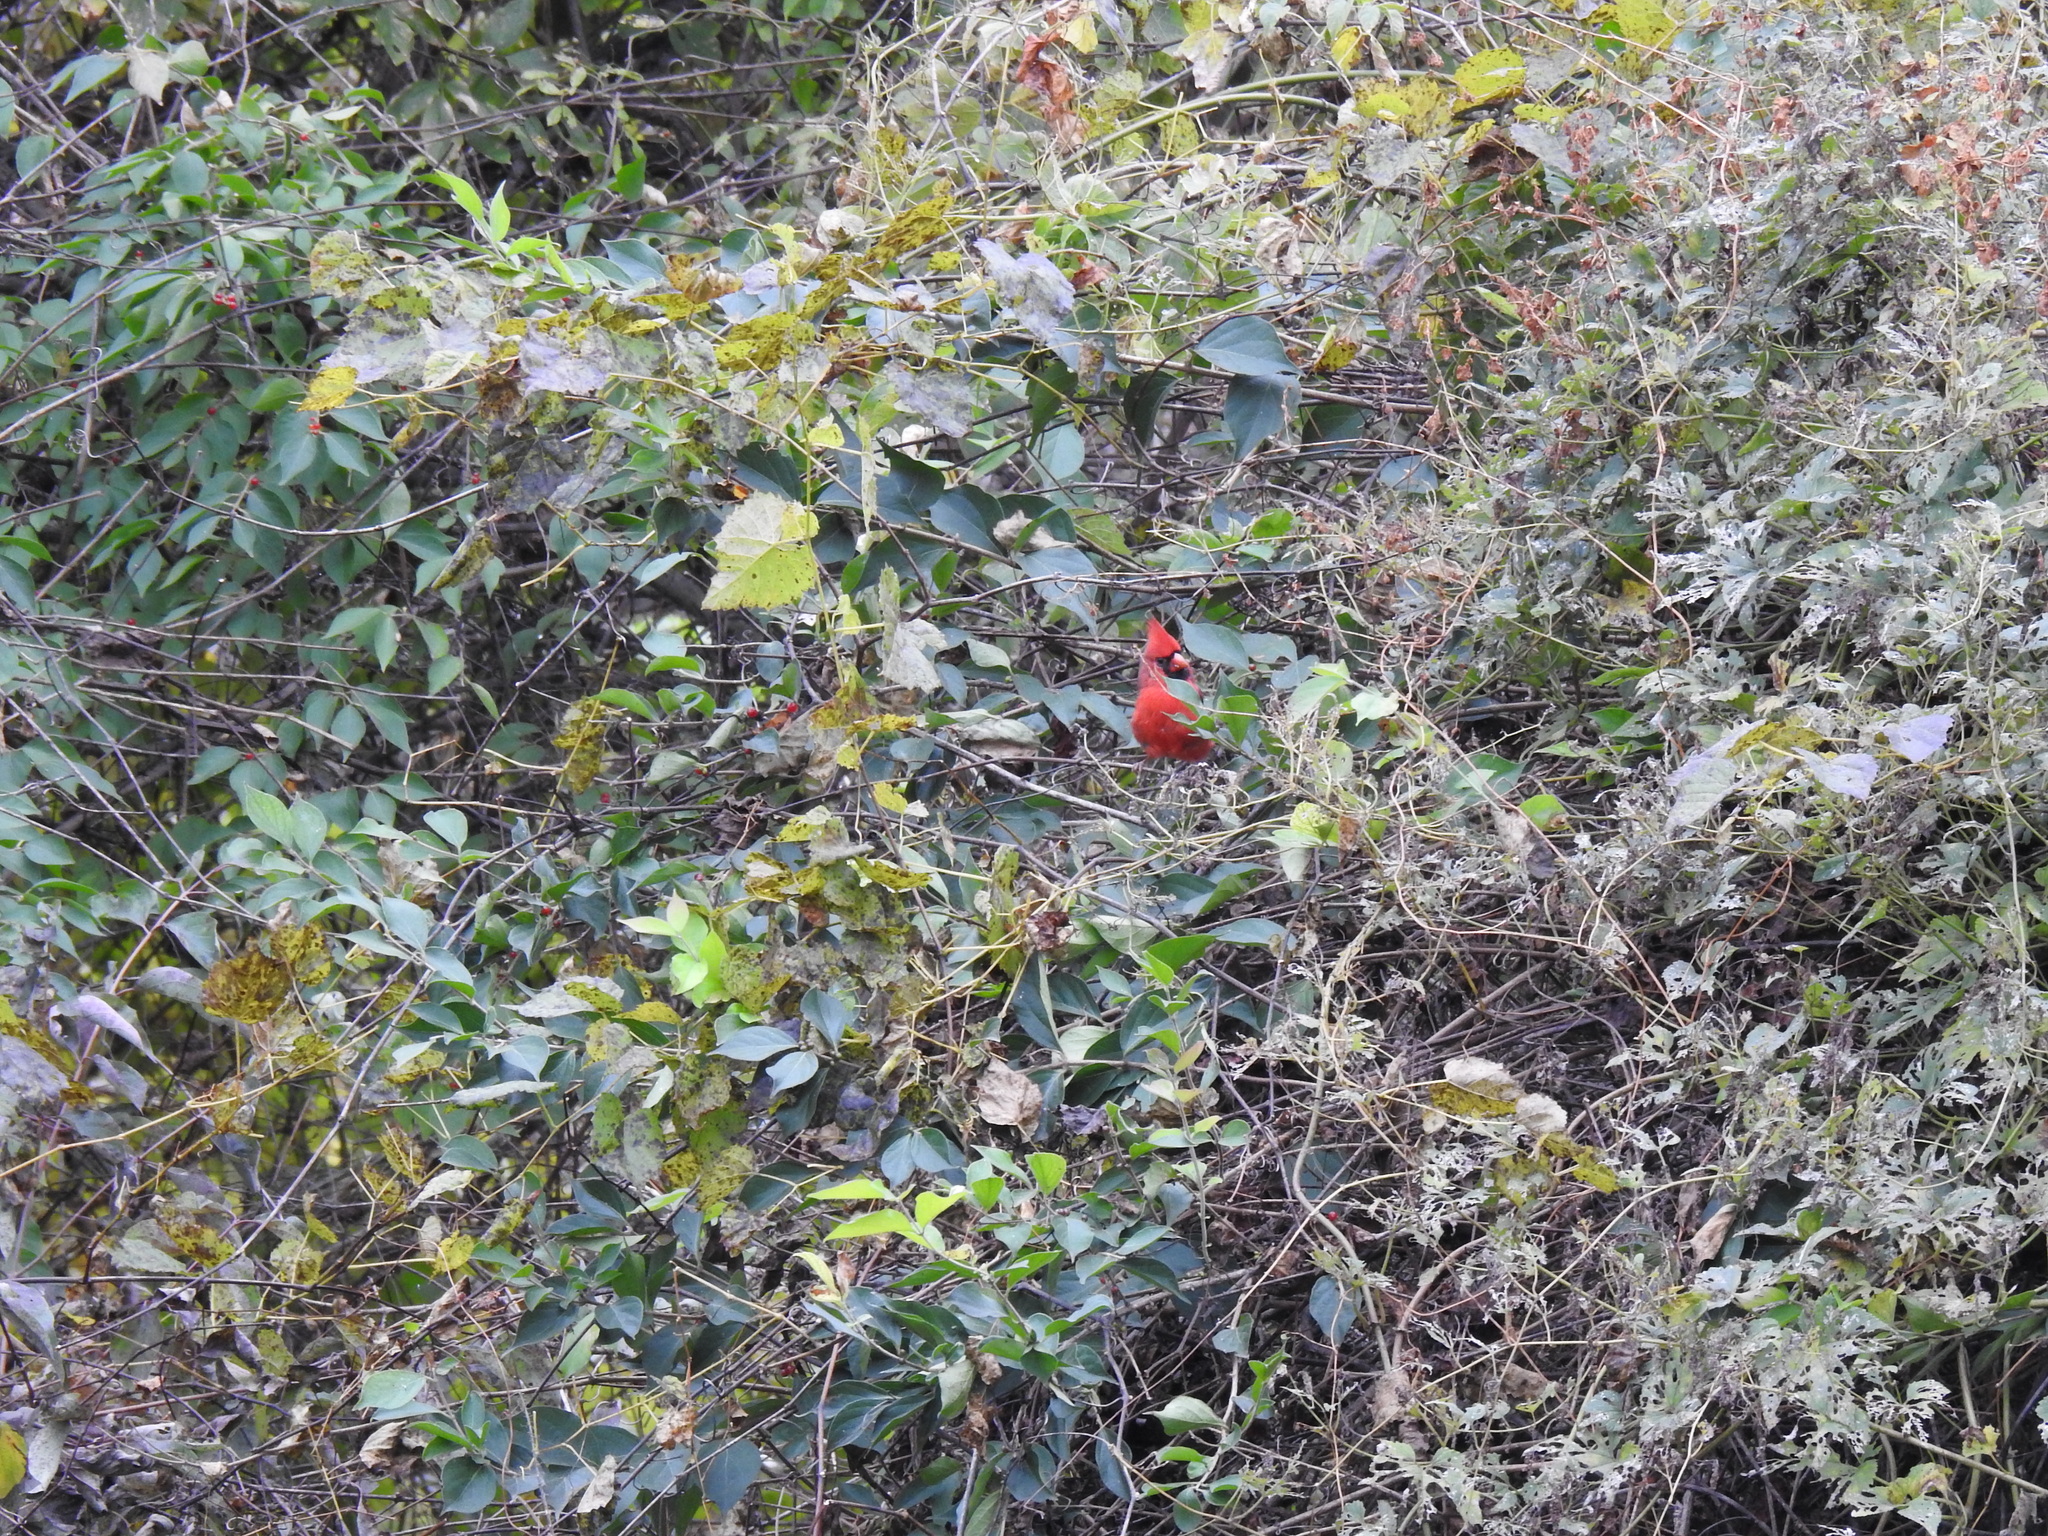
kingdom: Animalia
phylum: Chordata
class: Aves
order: Passeriformes
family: Cardinalidae
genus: Cardinalis
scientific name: Cardinalis cardinalis
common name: Northern cardinal
